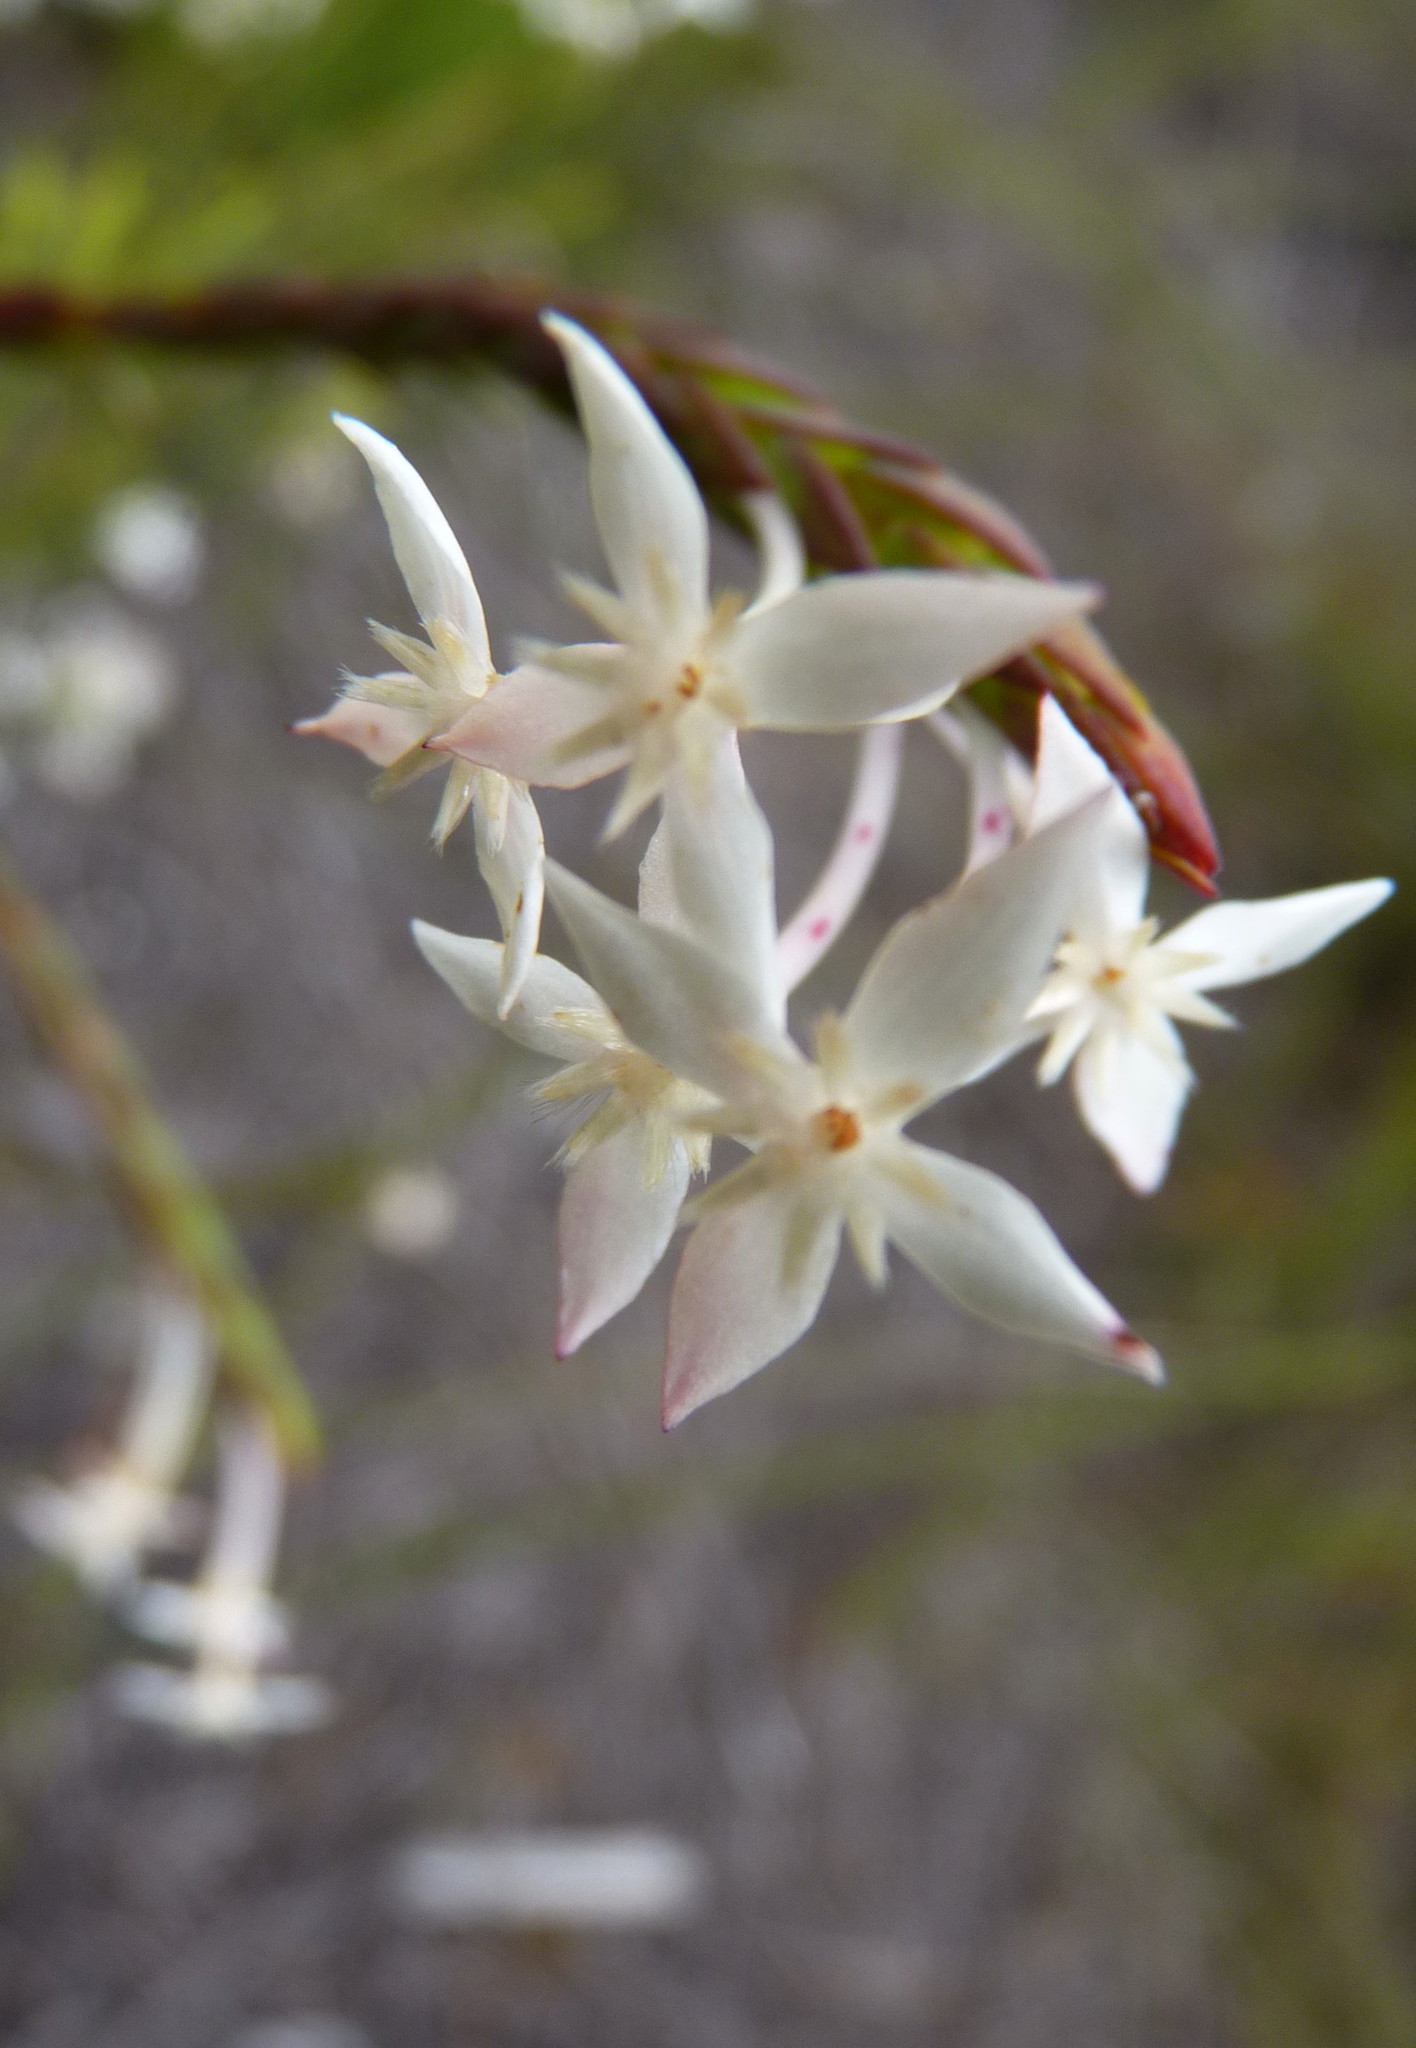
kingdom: Plantae
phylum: Tracheophyta
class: Magnoliopsida
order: Malvales
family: Thymelaeaceae
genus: Struthiola
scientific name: Struthiola myrsinites
